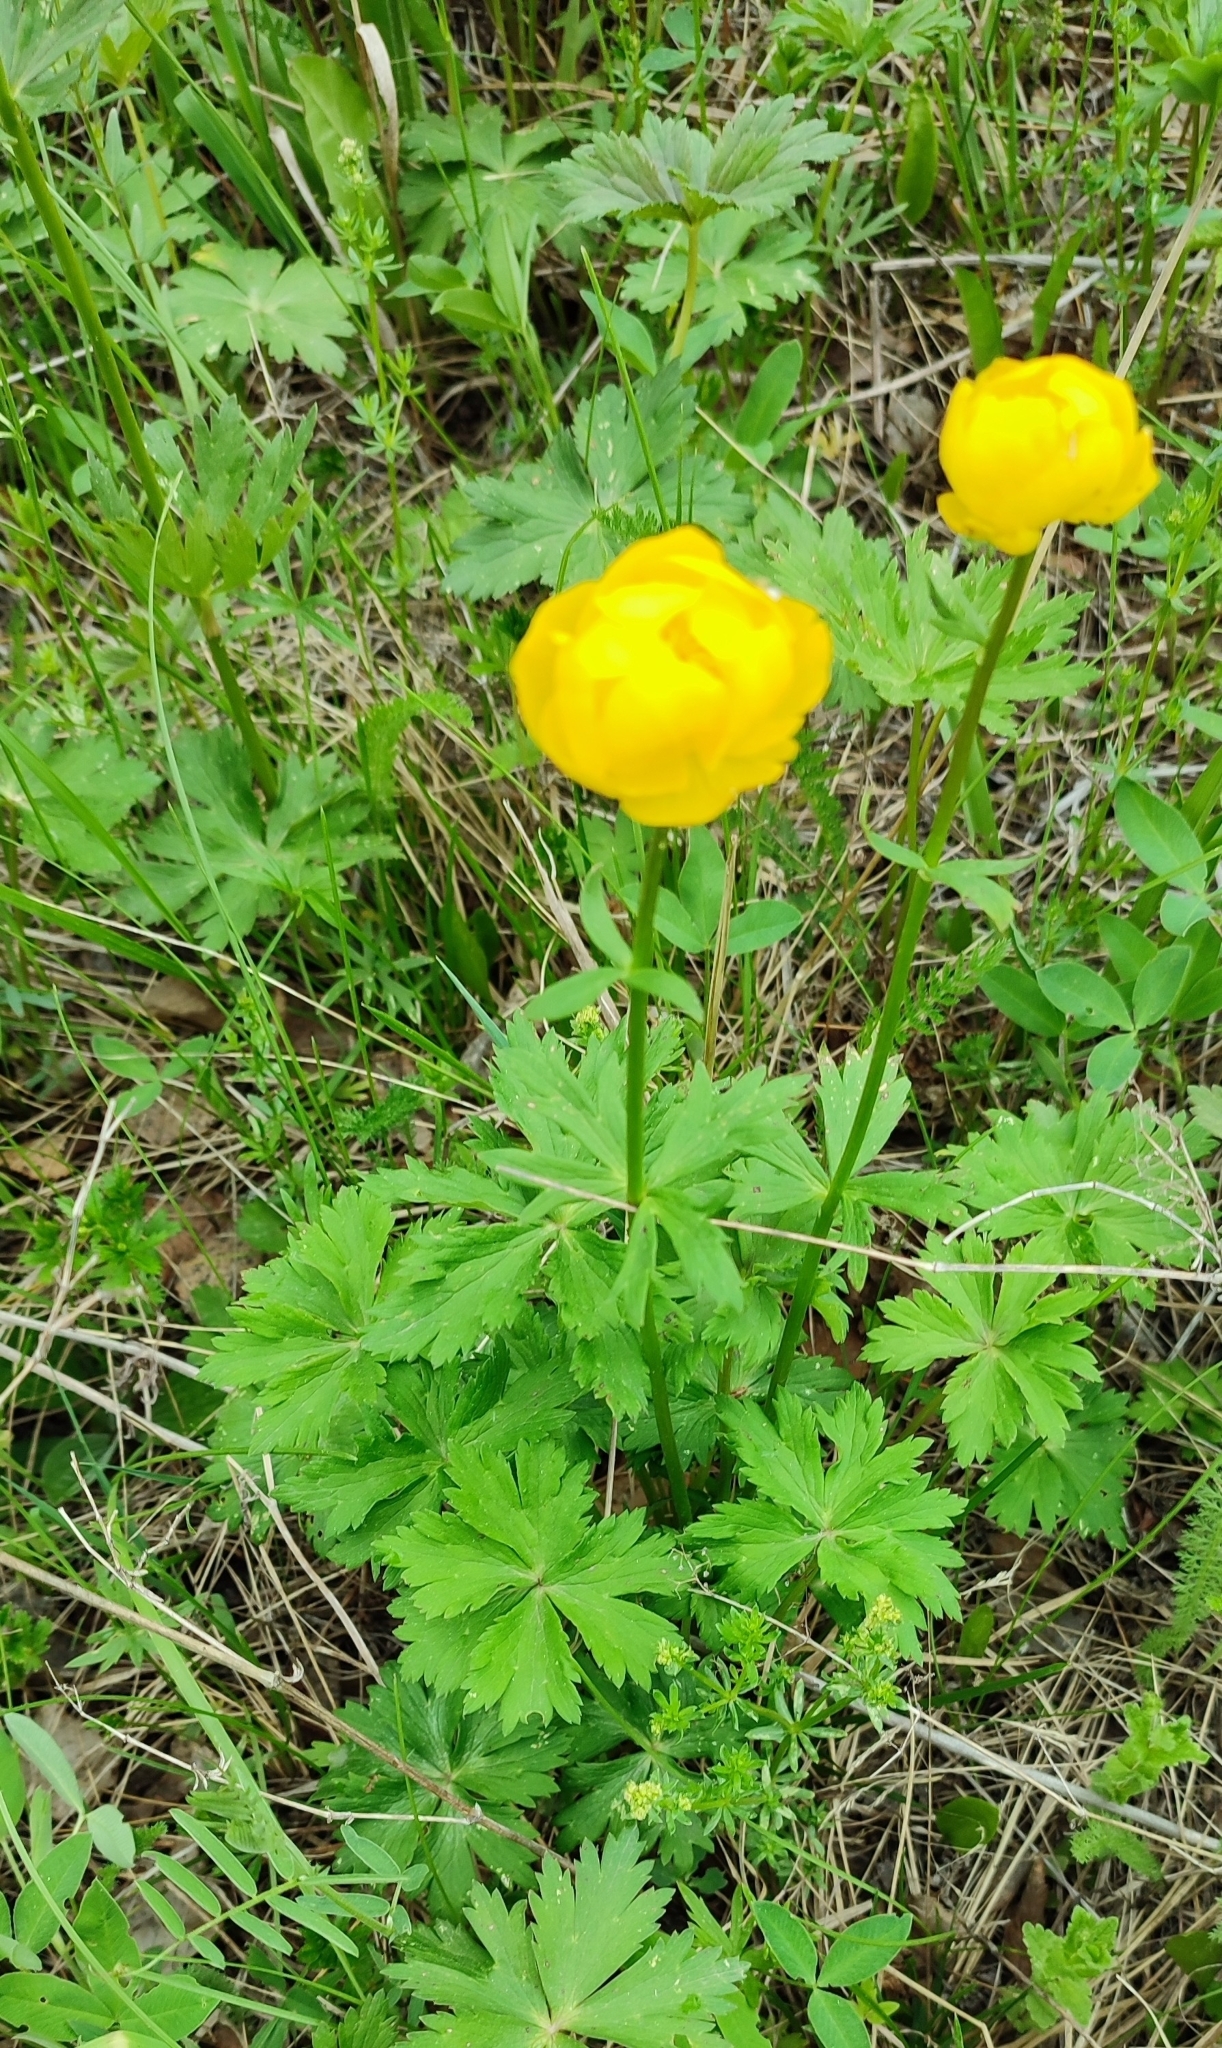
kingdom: Plantae
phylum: Tracheophyta
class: Magnoliopsida
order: Ranunculales
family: Ranunculaceae
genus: Trollius
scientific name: Trollius europaeus
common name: European globeflower
